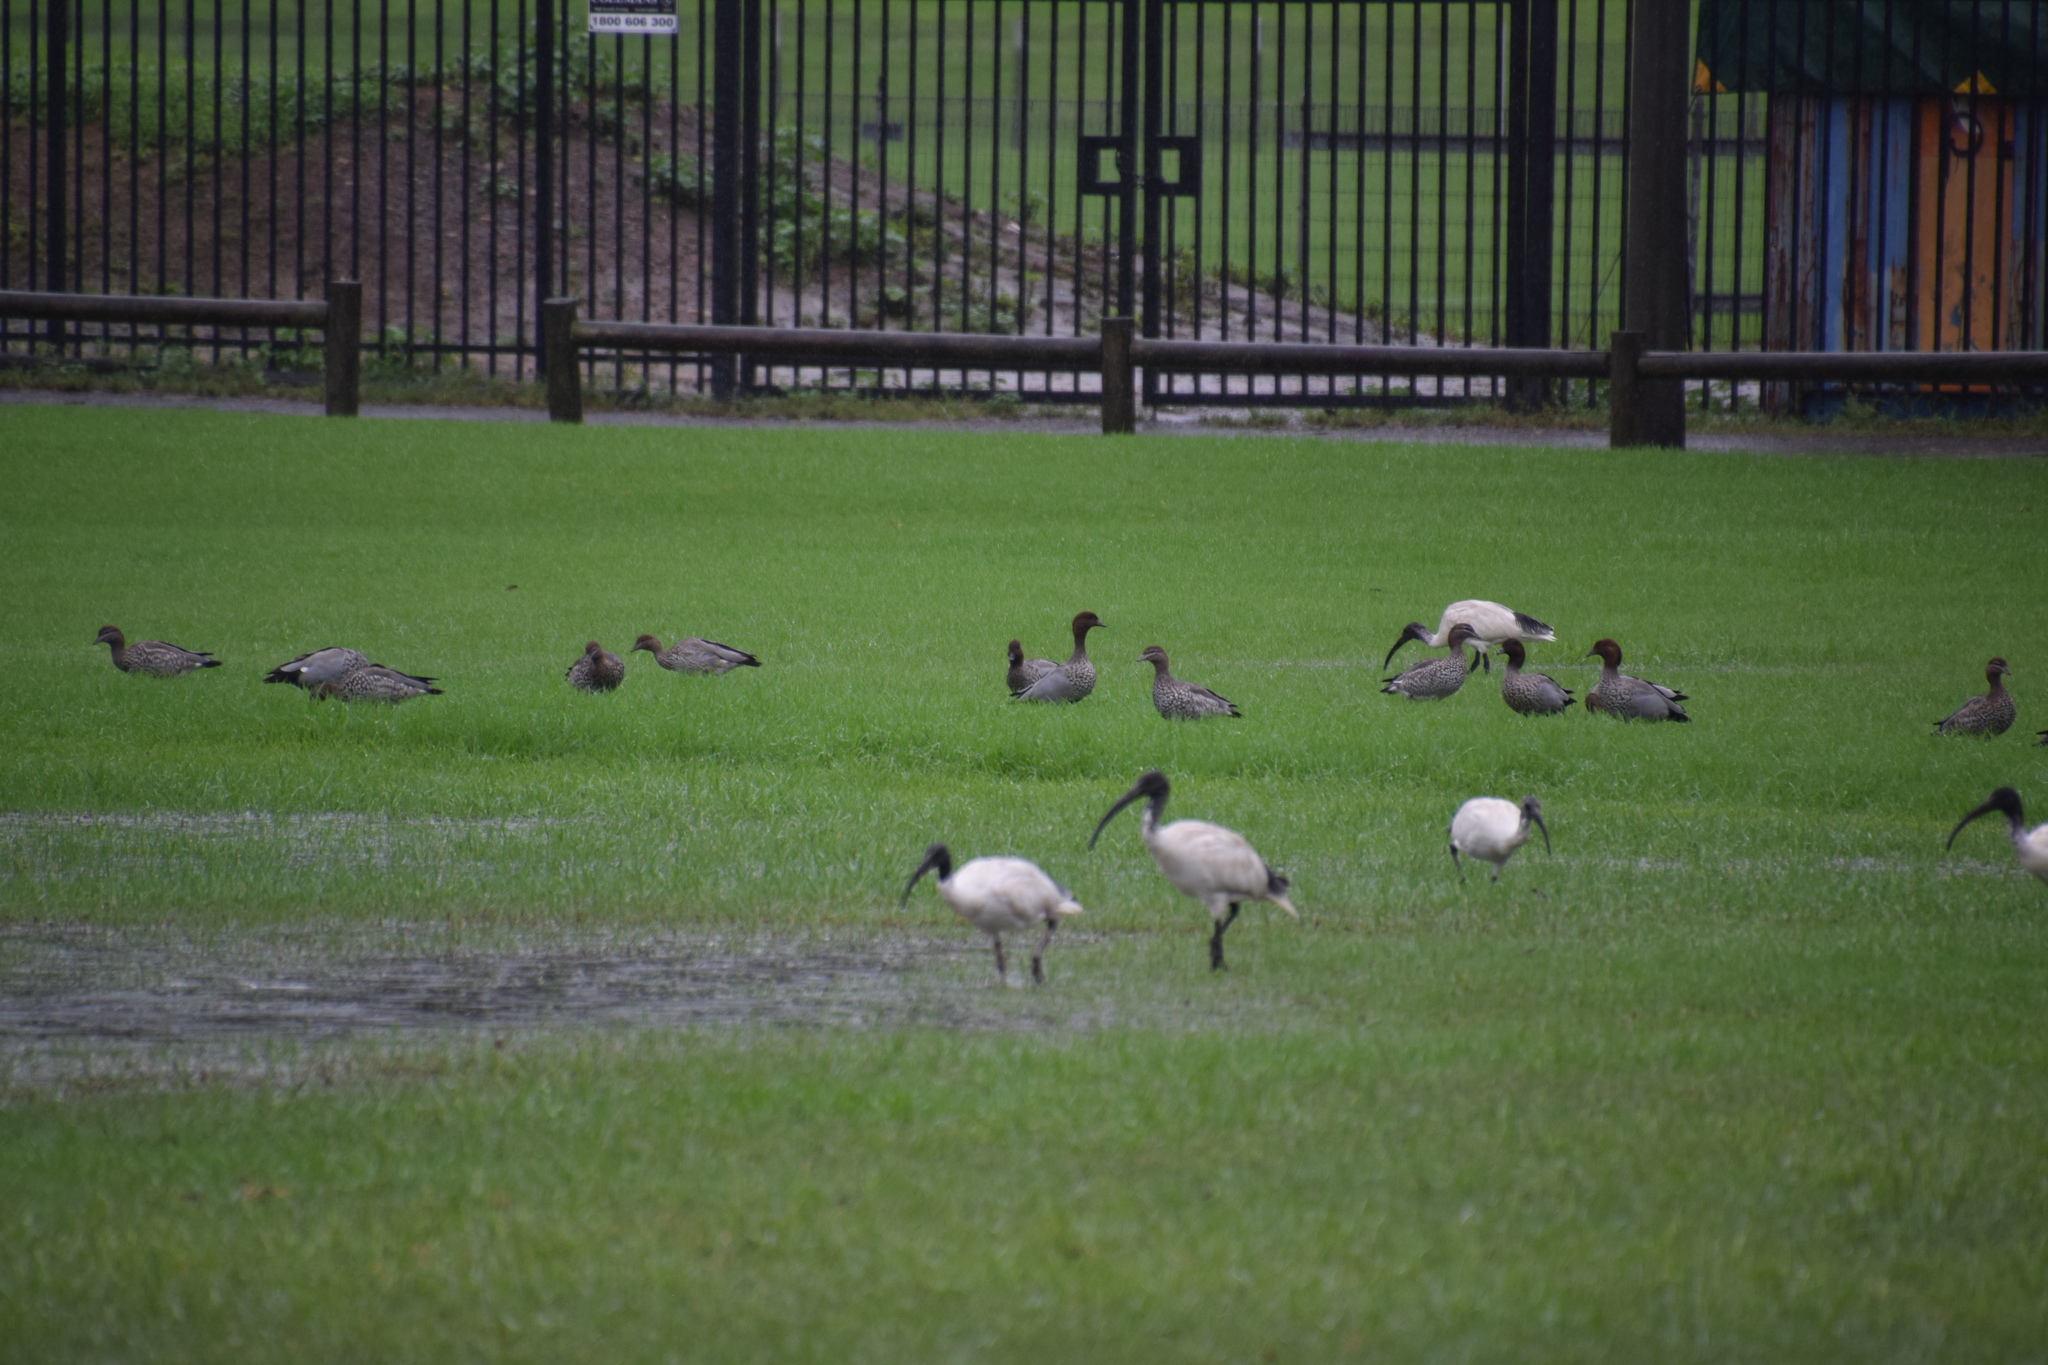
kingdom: Animalia
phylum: Chordata
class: Aves
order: Anseriformes
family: Anatidae
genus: Chenonetta
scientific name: Chenonetta jubata
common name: Maned duck
